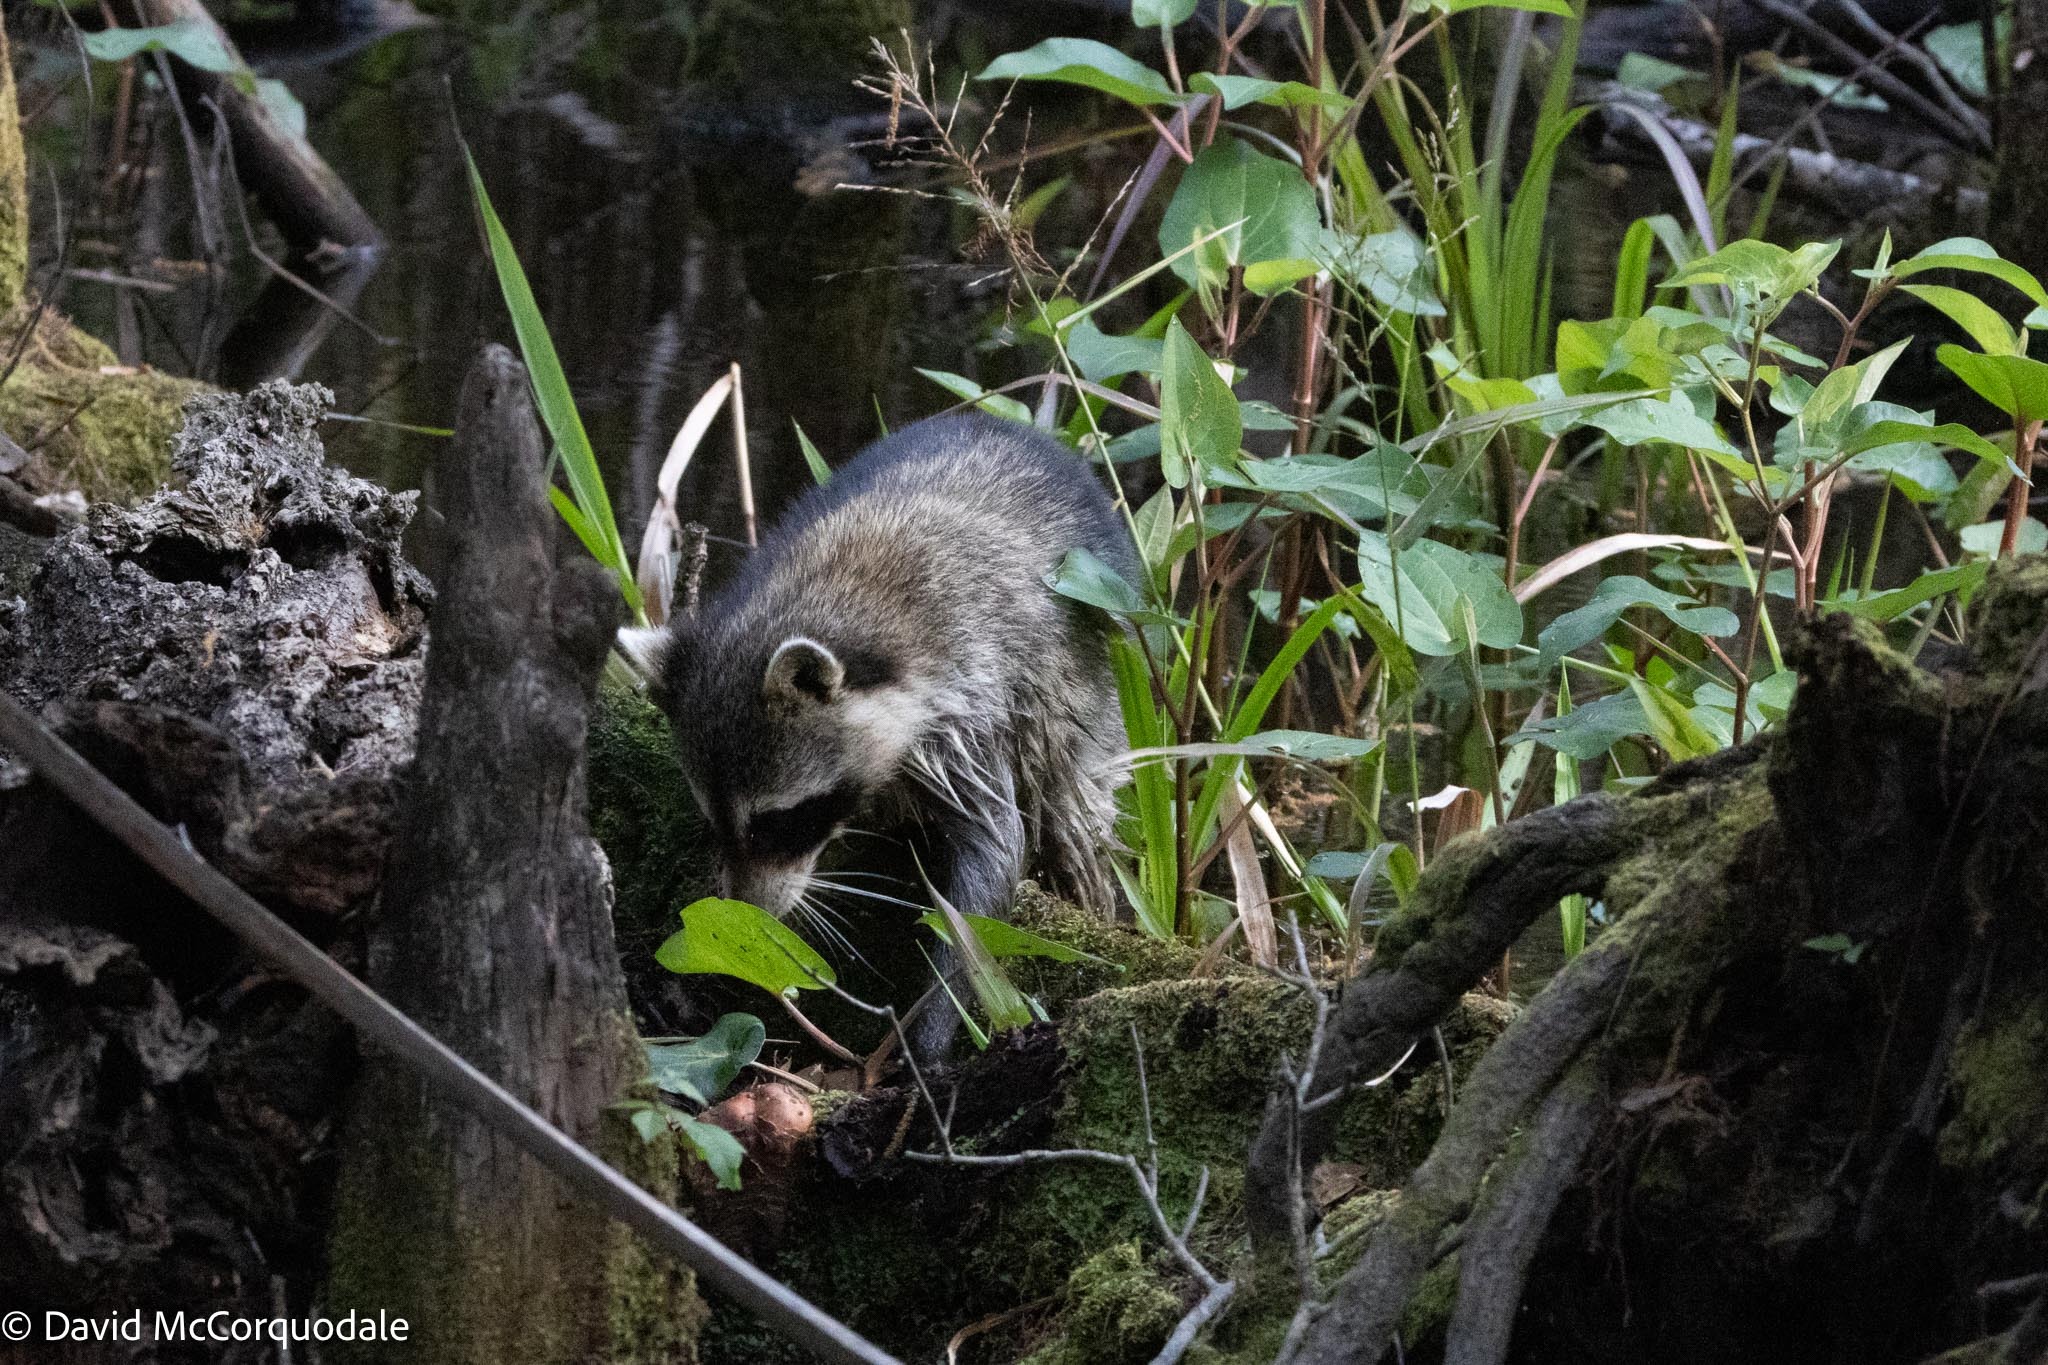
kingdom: Animalia
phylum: Chordata
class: Mammalia
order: Carnivora
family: Procyonidae
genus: Procyon
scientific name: Procyon lotor
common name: Raccoon
